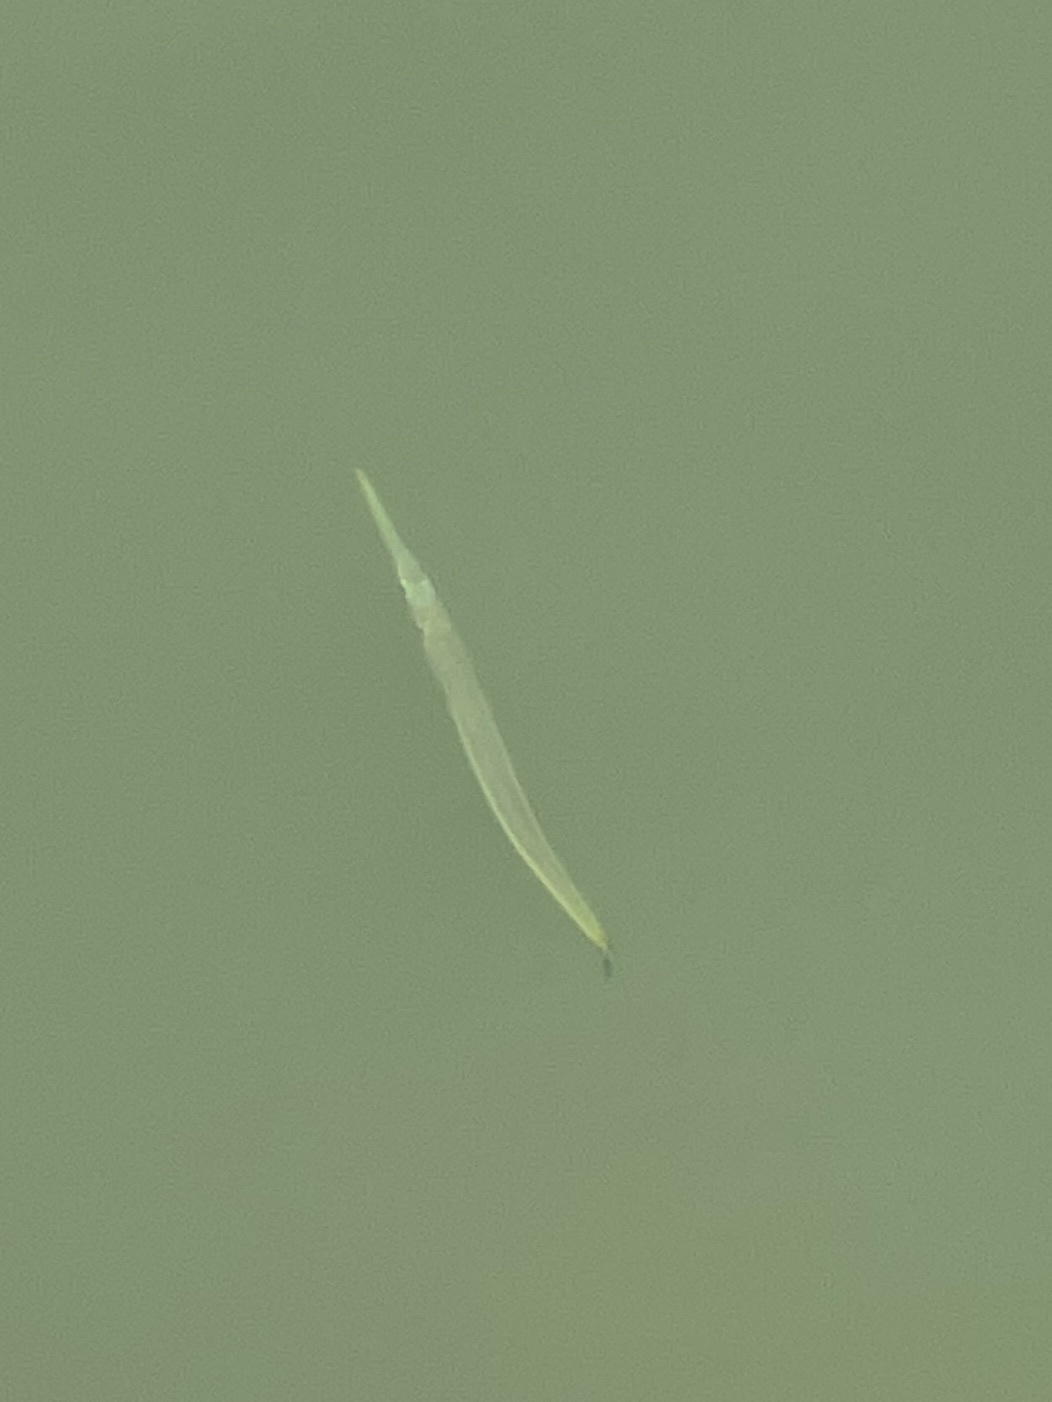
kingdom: Animalia
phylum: Chordata
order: Beloniformes
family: Belonidae
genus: Strongylura
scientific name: Strongylura marina
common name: Atlantic needlefish
